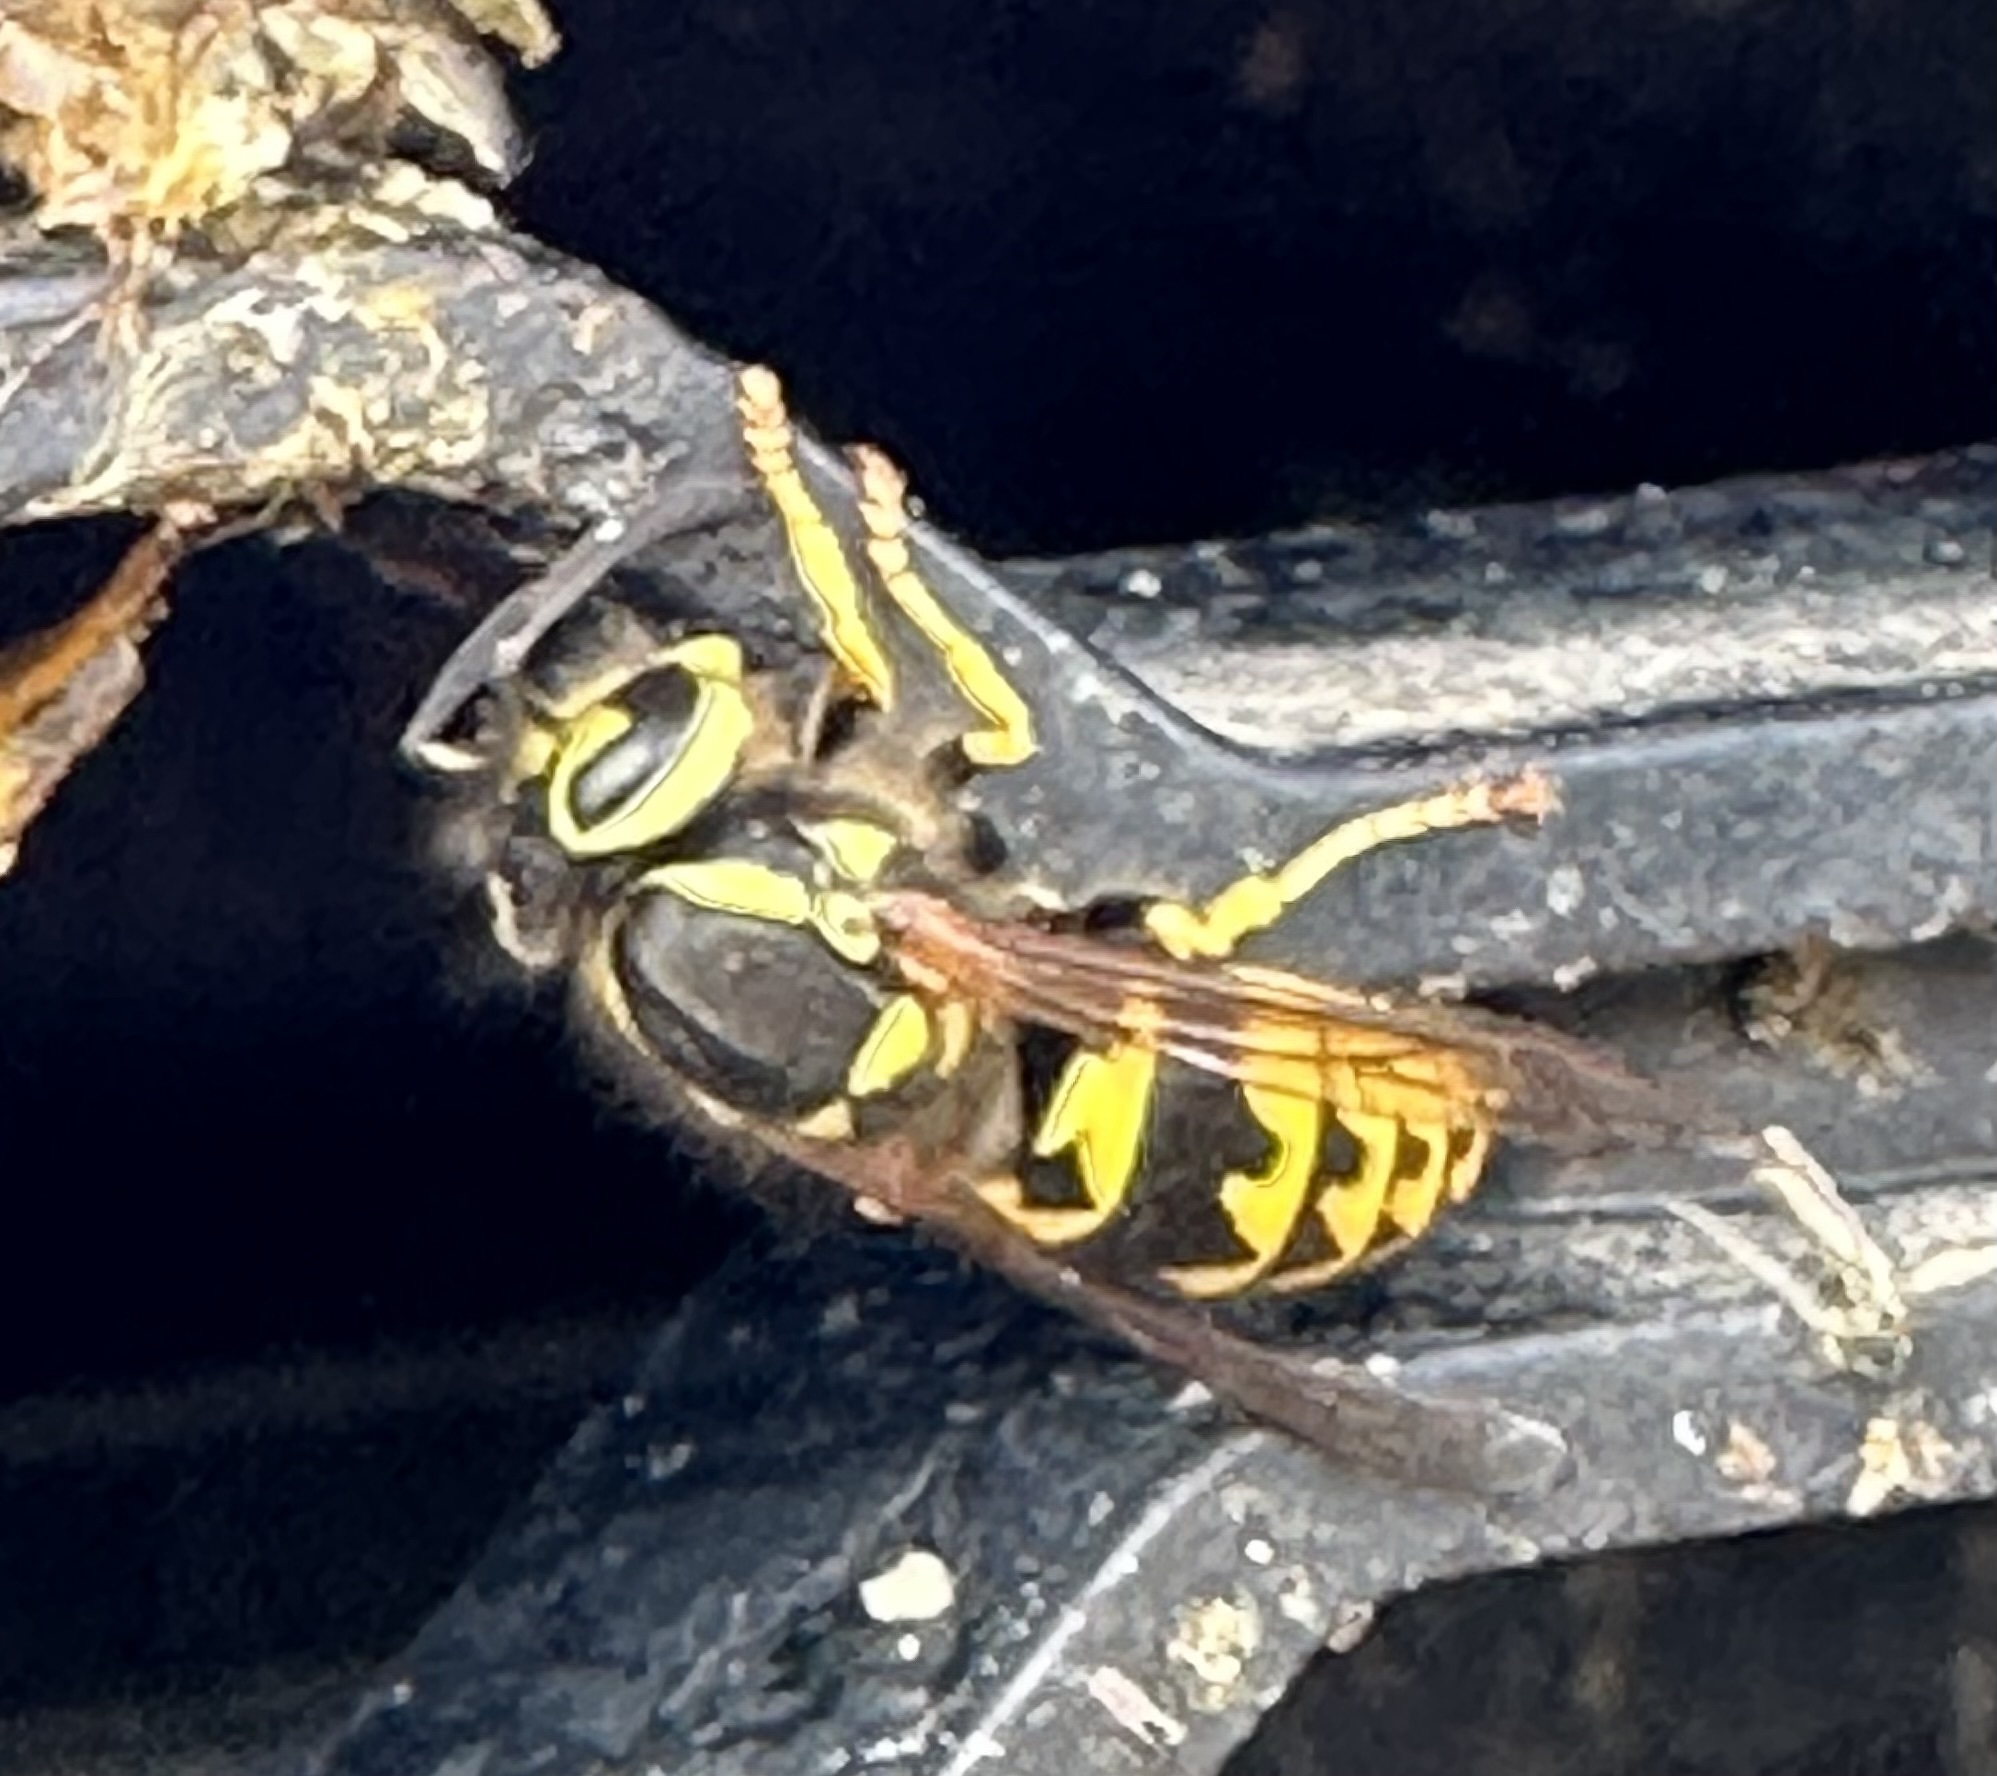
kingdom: Animalia
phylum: Arthropoda
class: Insecta
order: Hymenoptera
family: Vespidae
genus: Vespula
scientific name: Vespula pensylvanica
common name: Western yellowjacket
